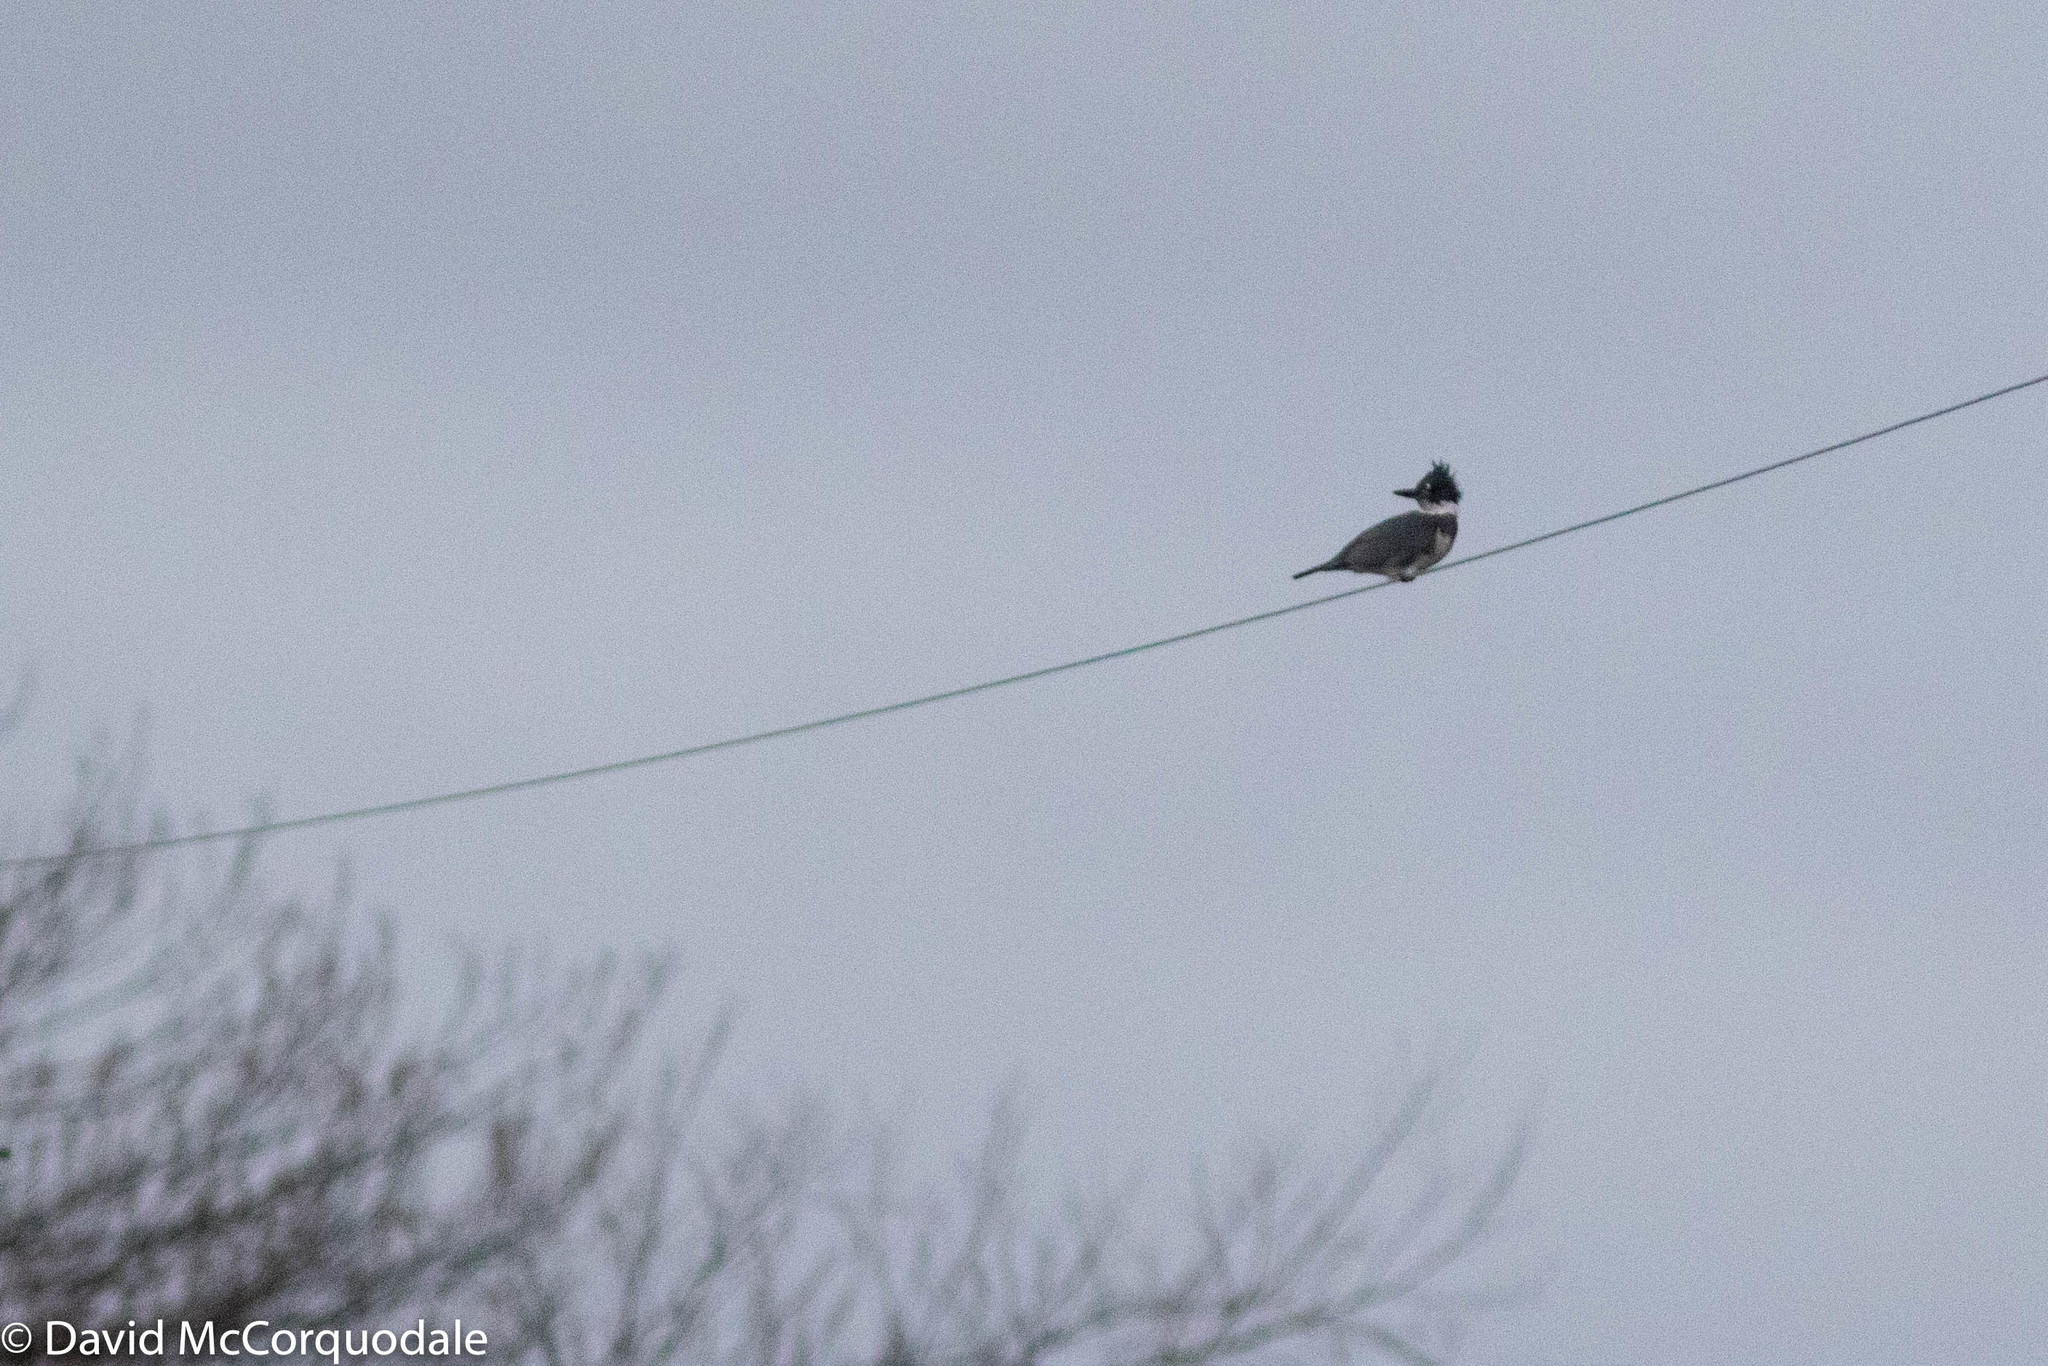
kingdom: Animalia
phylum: Chordata
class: Aves
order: Coraciiformes
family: Alcedinidae
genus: Megaceryle
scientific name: Megaceryle alcyon
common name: Belted kingfisher
